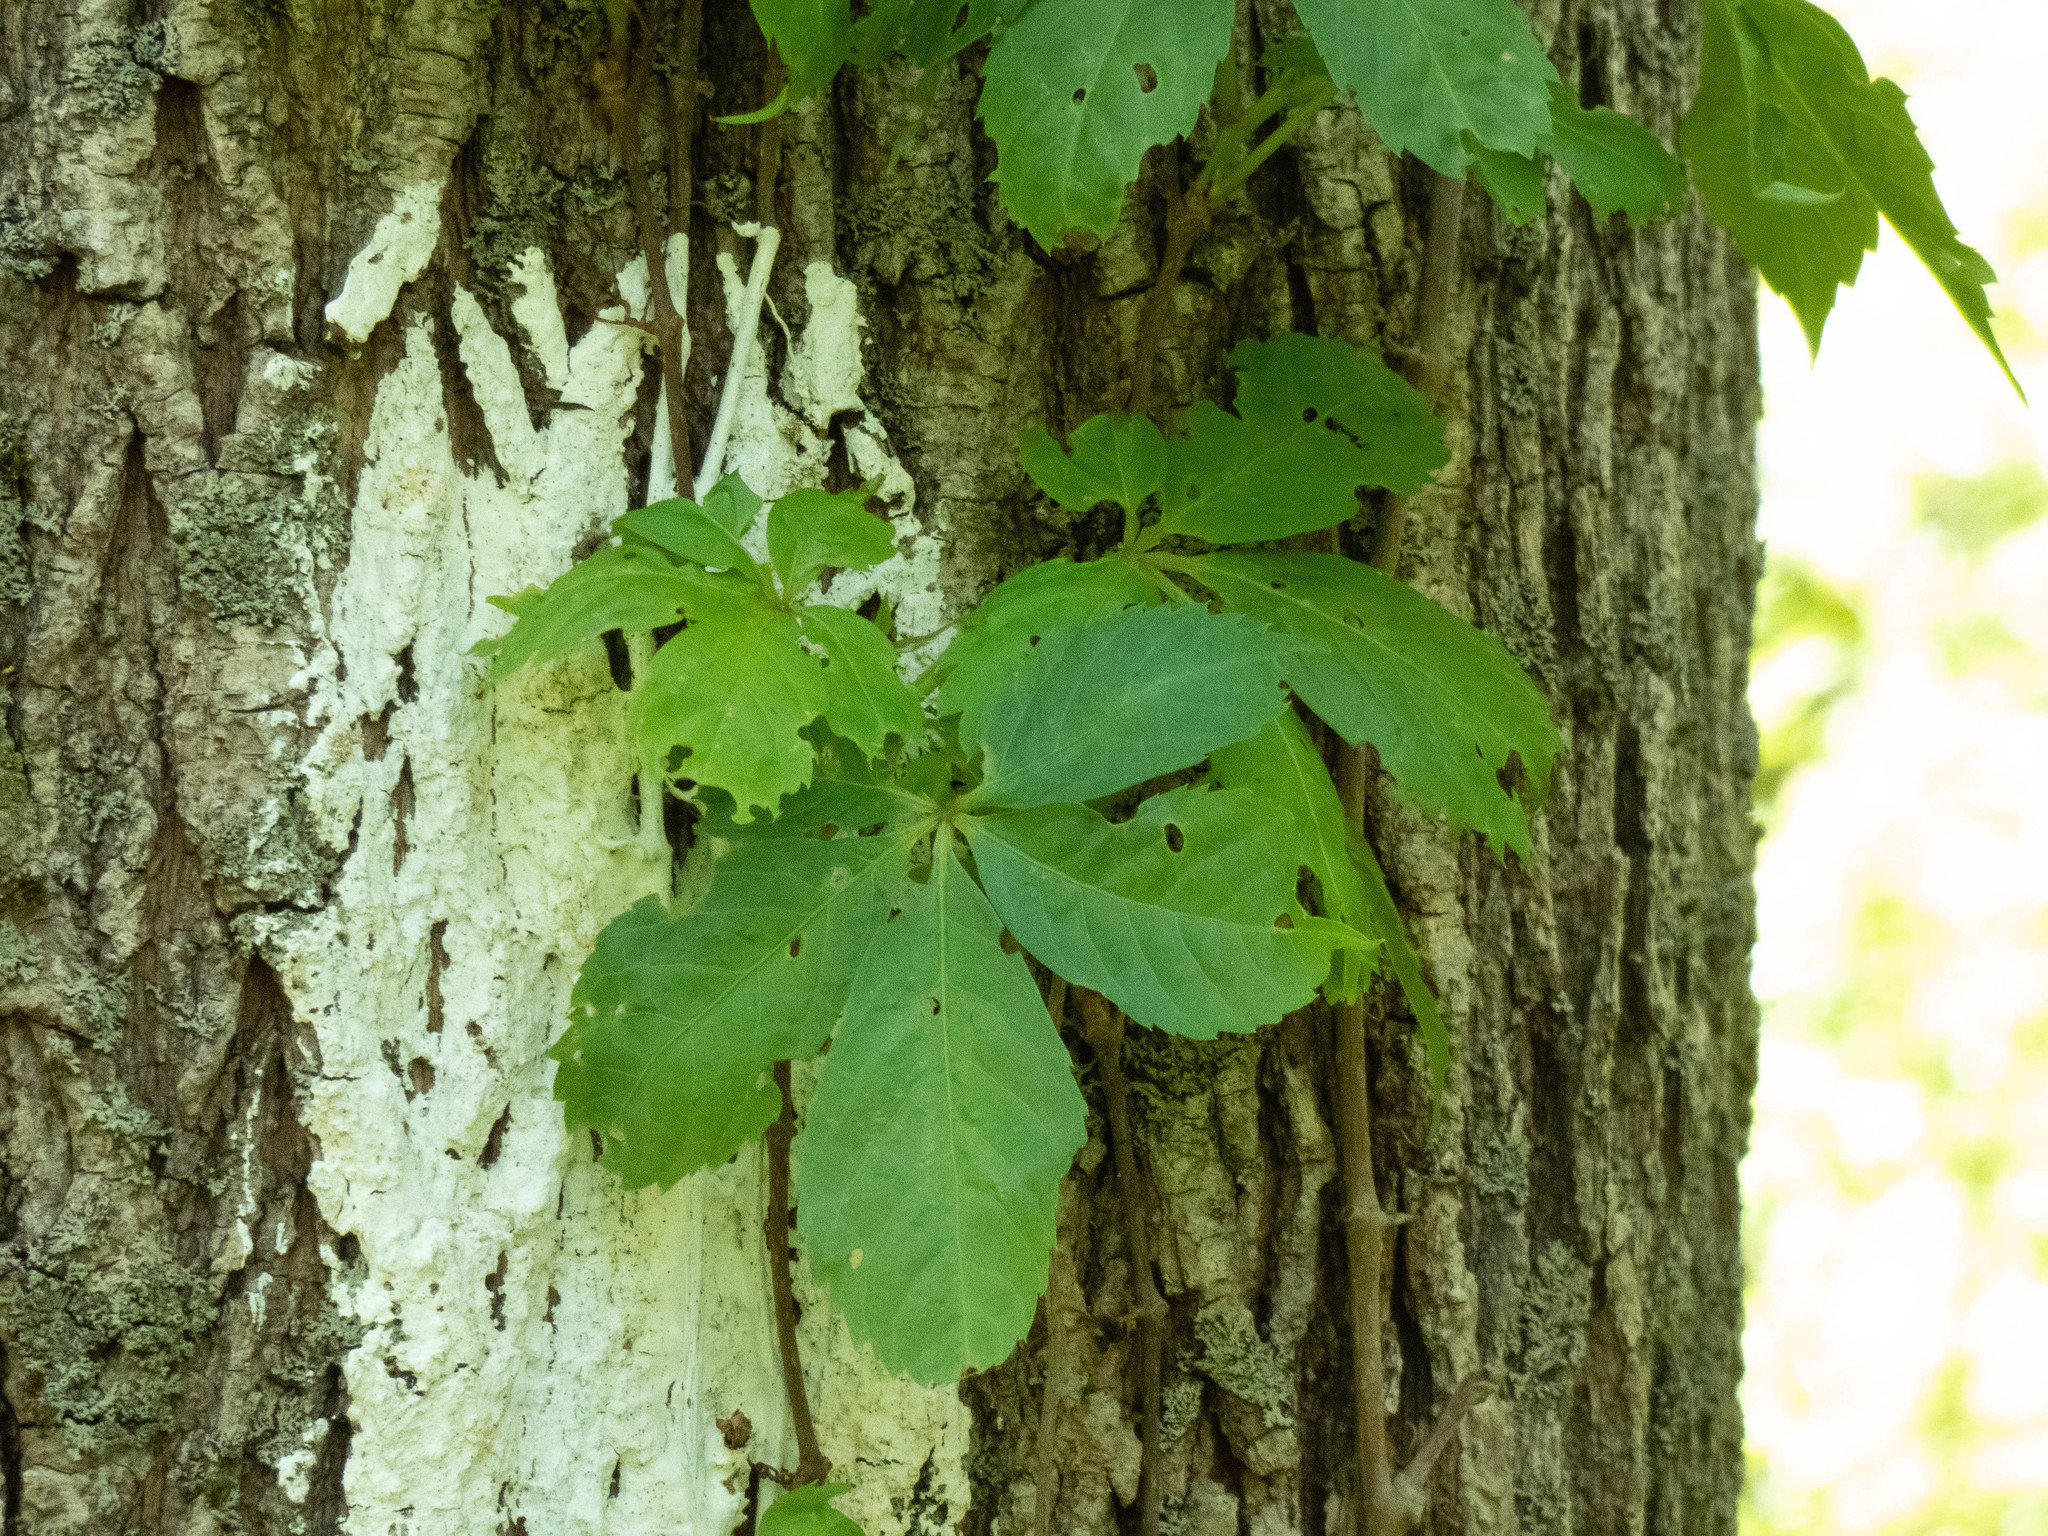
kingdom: Plantae
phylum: Tracheophyta
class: Magnoliopsida
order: Vitales
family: Vitaceae
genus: Parthenocissus
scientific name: Parthenocissus quinquefolia
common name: Virginia-creeper
